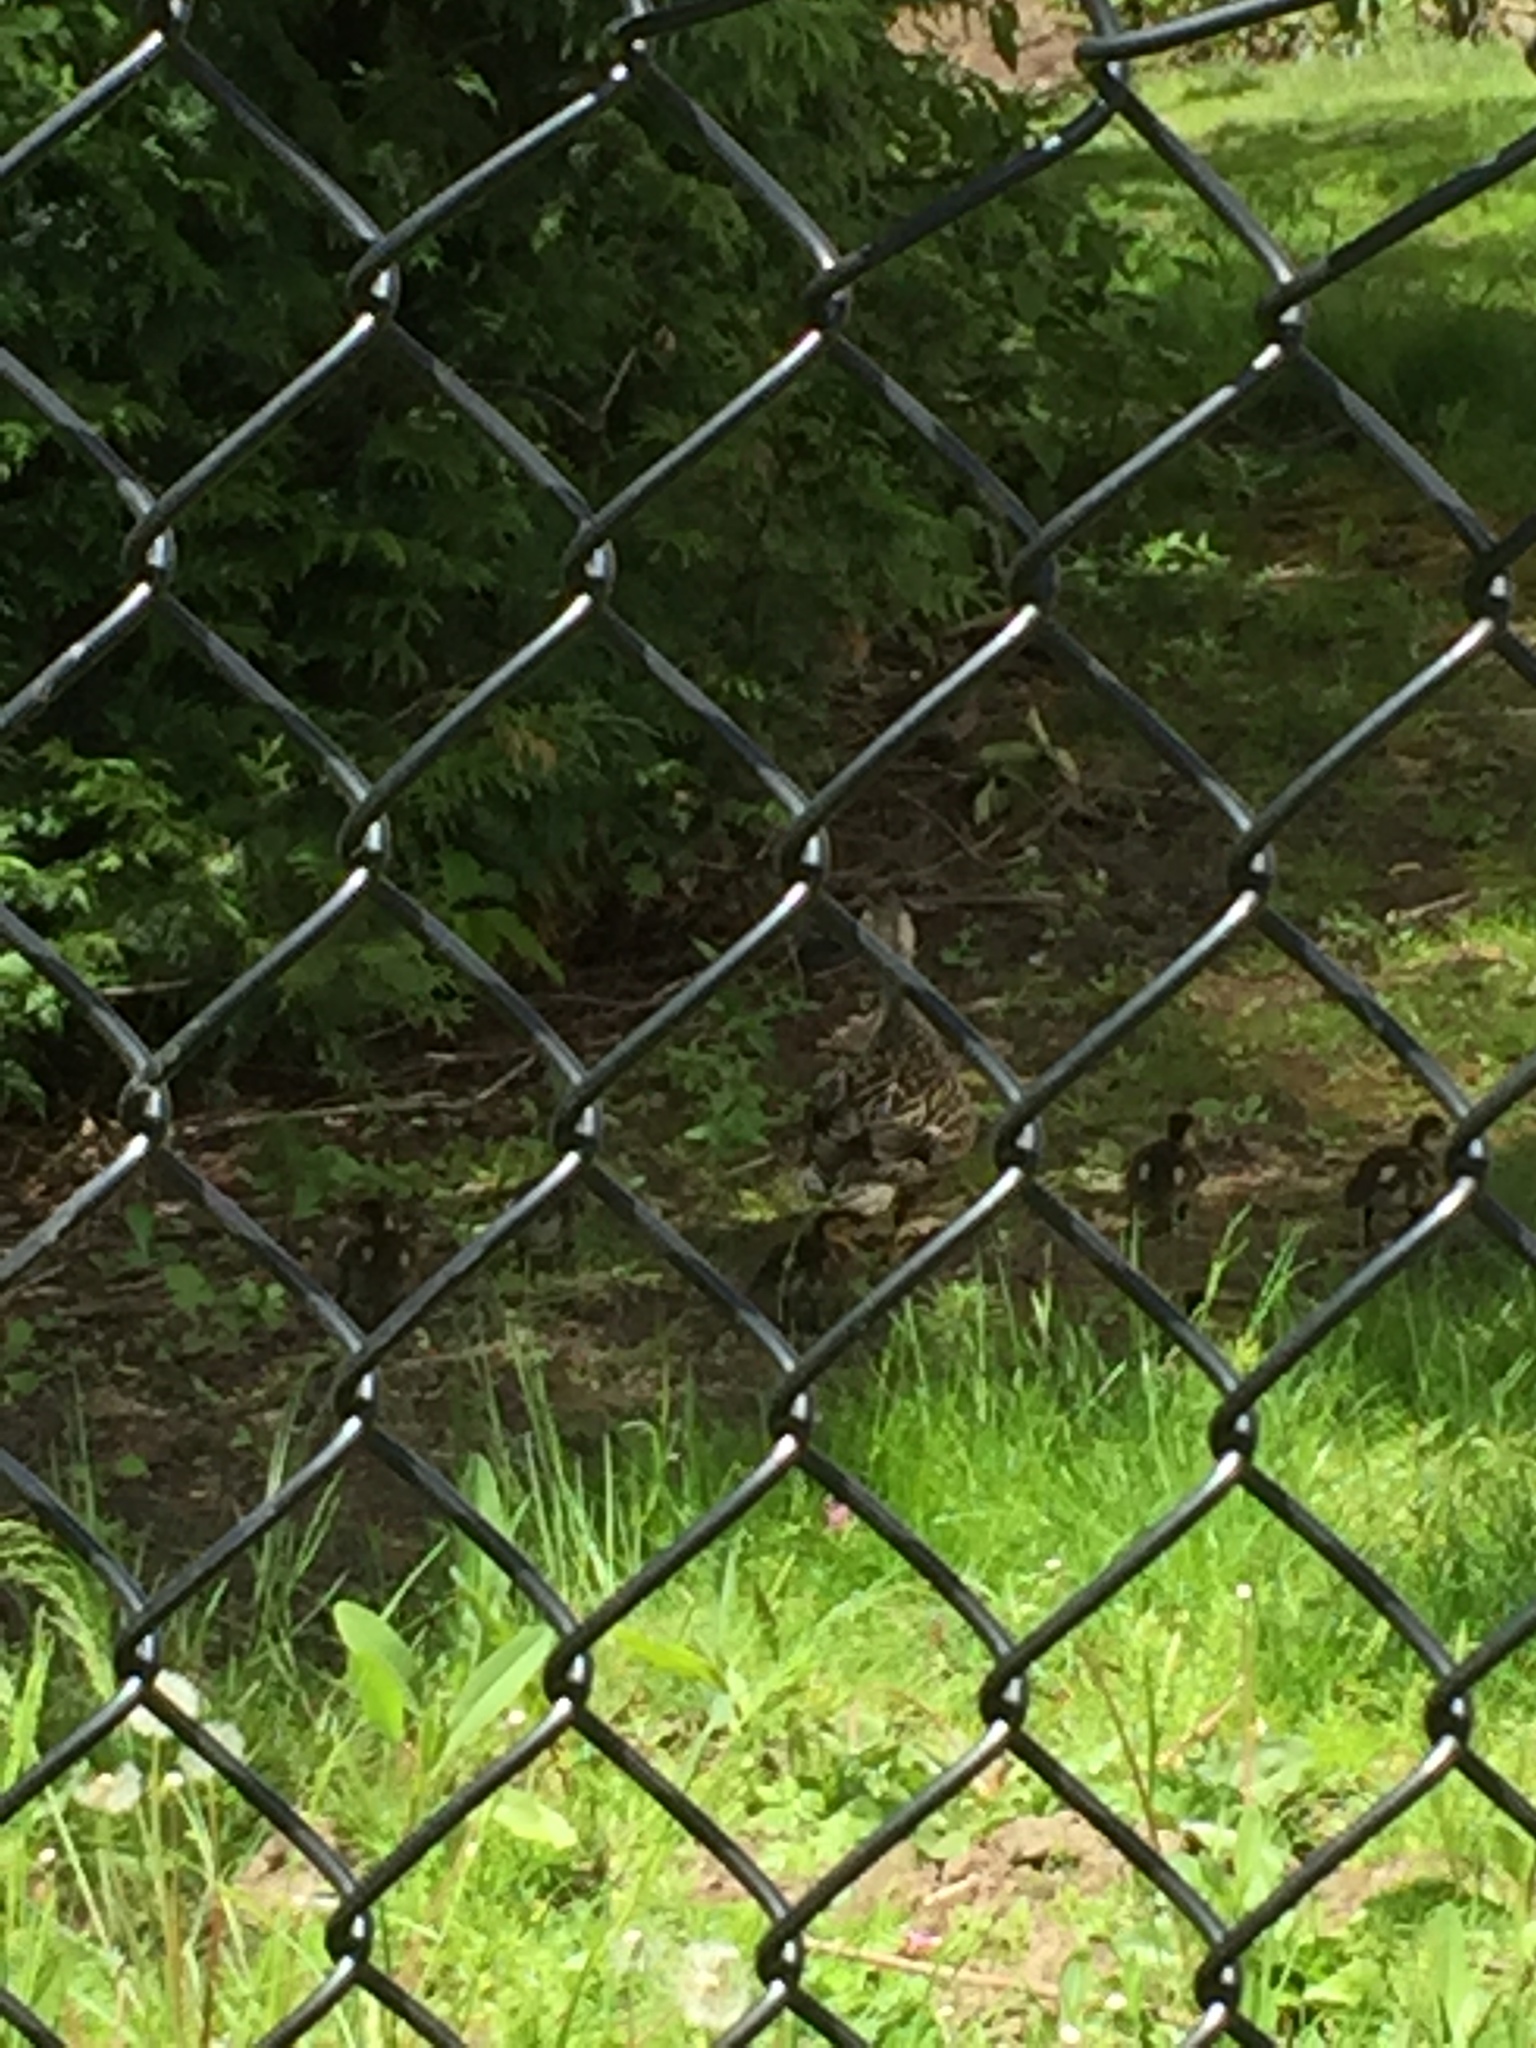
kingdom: Animalia
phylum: Chordata
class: Aves
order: Anseriformes
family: Anatidae
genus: Anas
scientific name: Anas platyrhynchos
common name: Mallard
